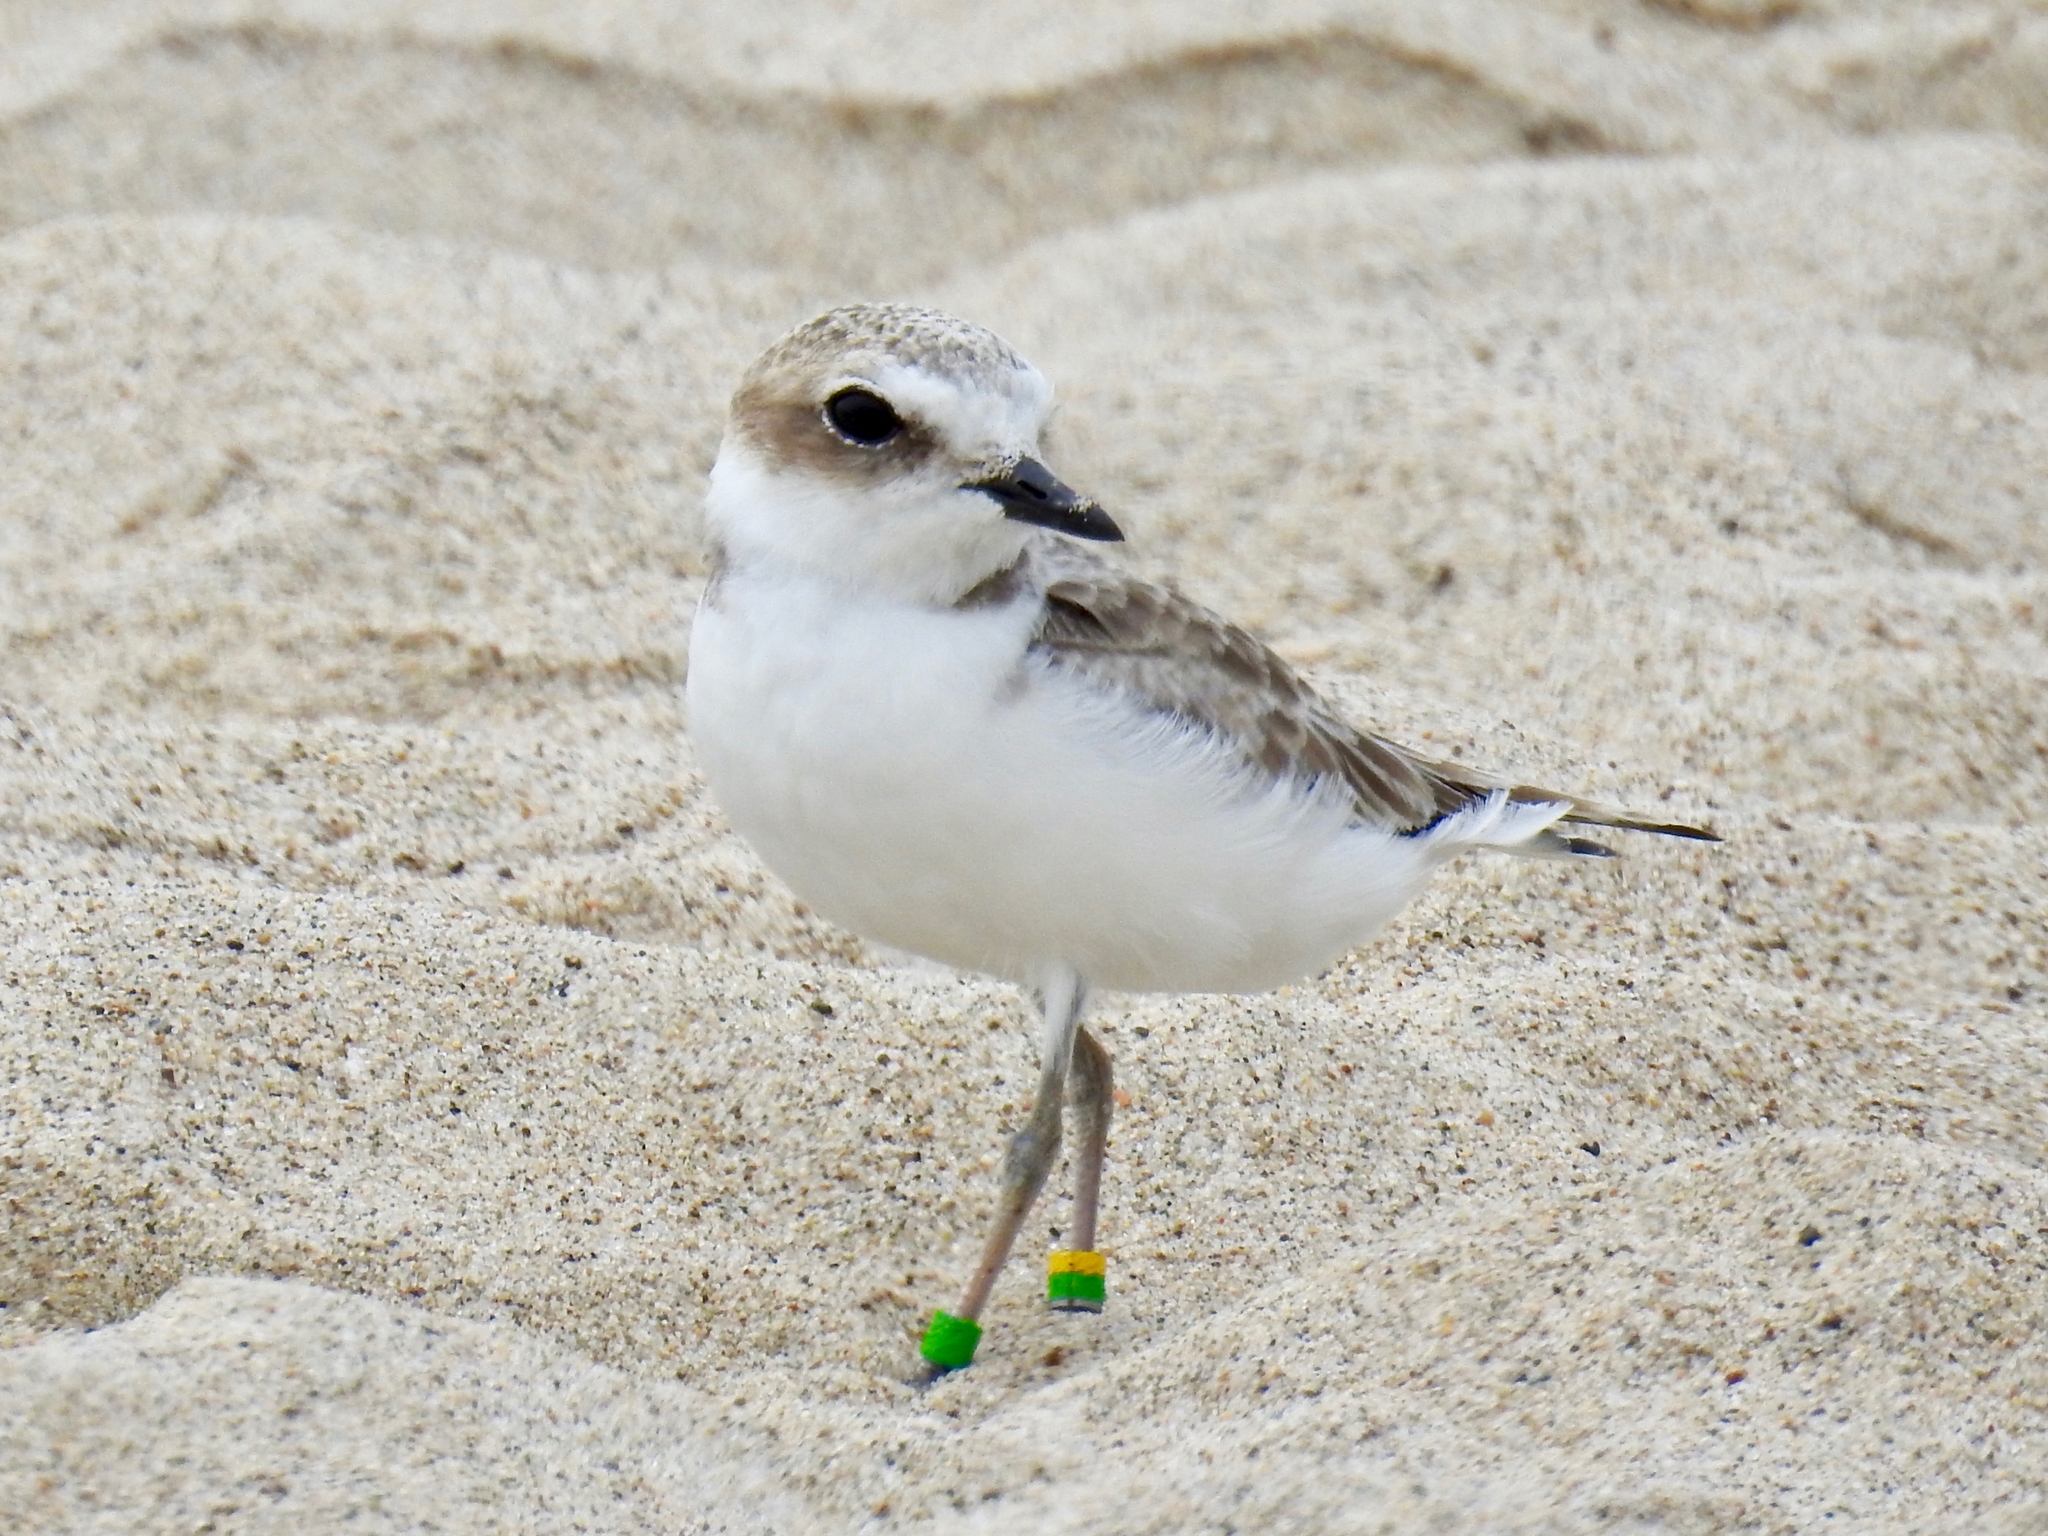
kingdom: Animalia
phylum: Chordata
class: Aves
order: Charadriiformes
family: Charadriidae
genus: Anarhynchus
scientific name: Anarhynchus
